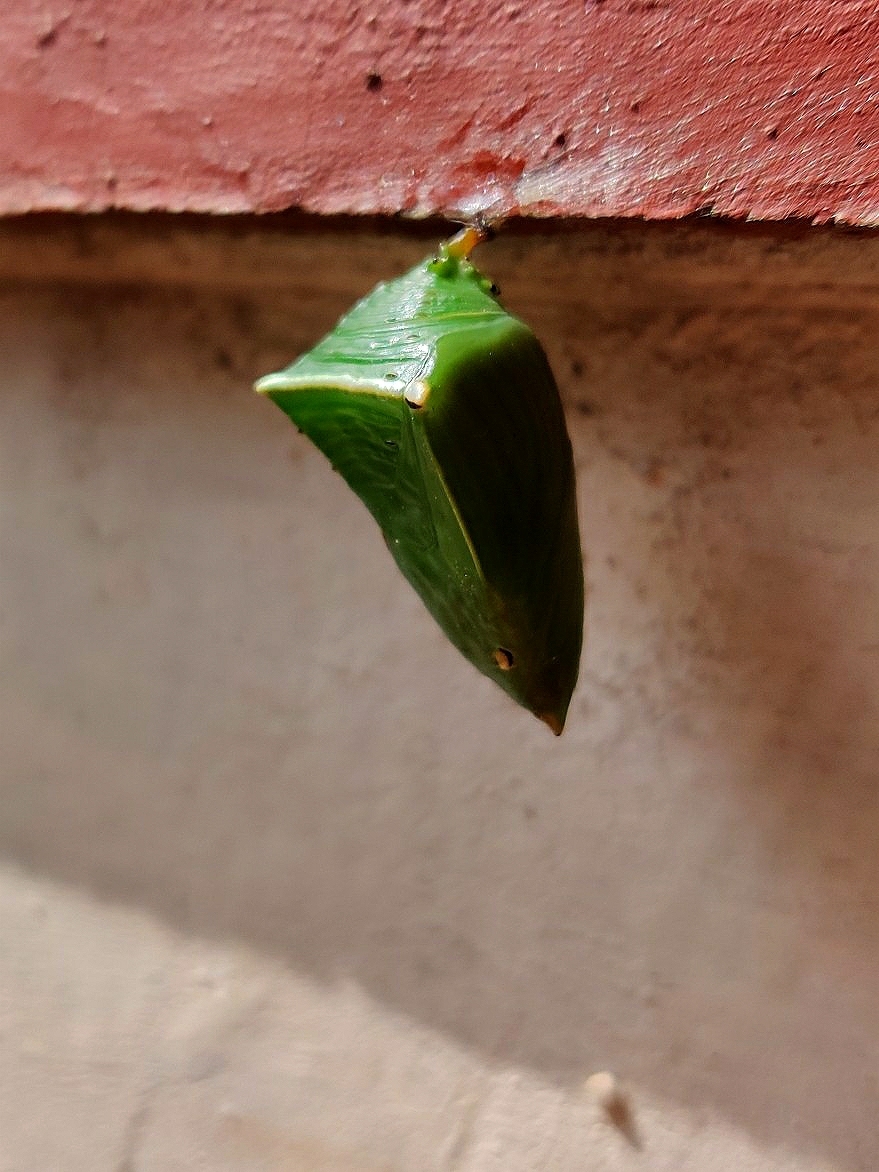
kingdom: Animalia
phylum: Arthropoda
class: Insecta
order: Lepidoptera
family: Nymphalidae
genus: Euthalia
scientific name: Euthalia aconthea
